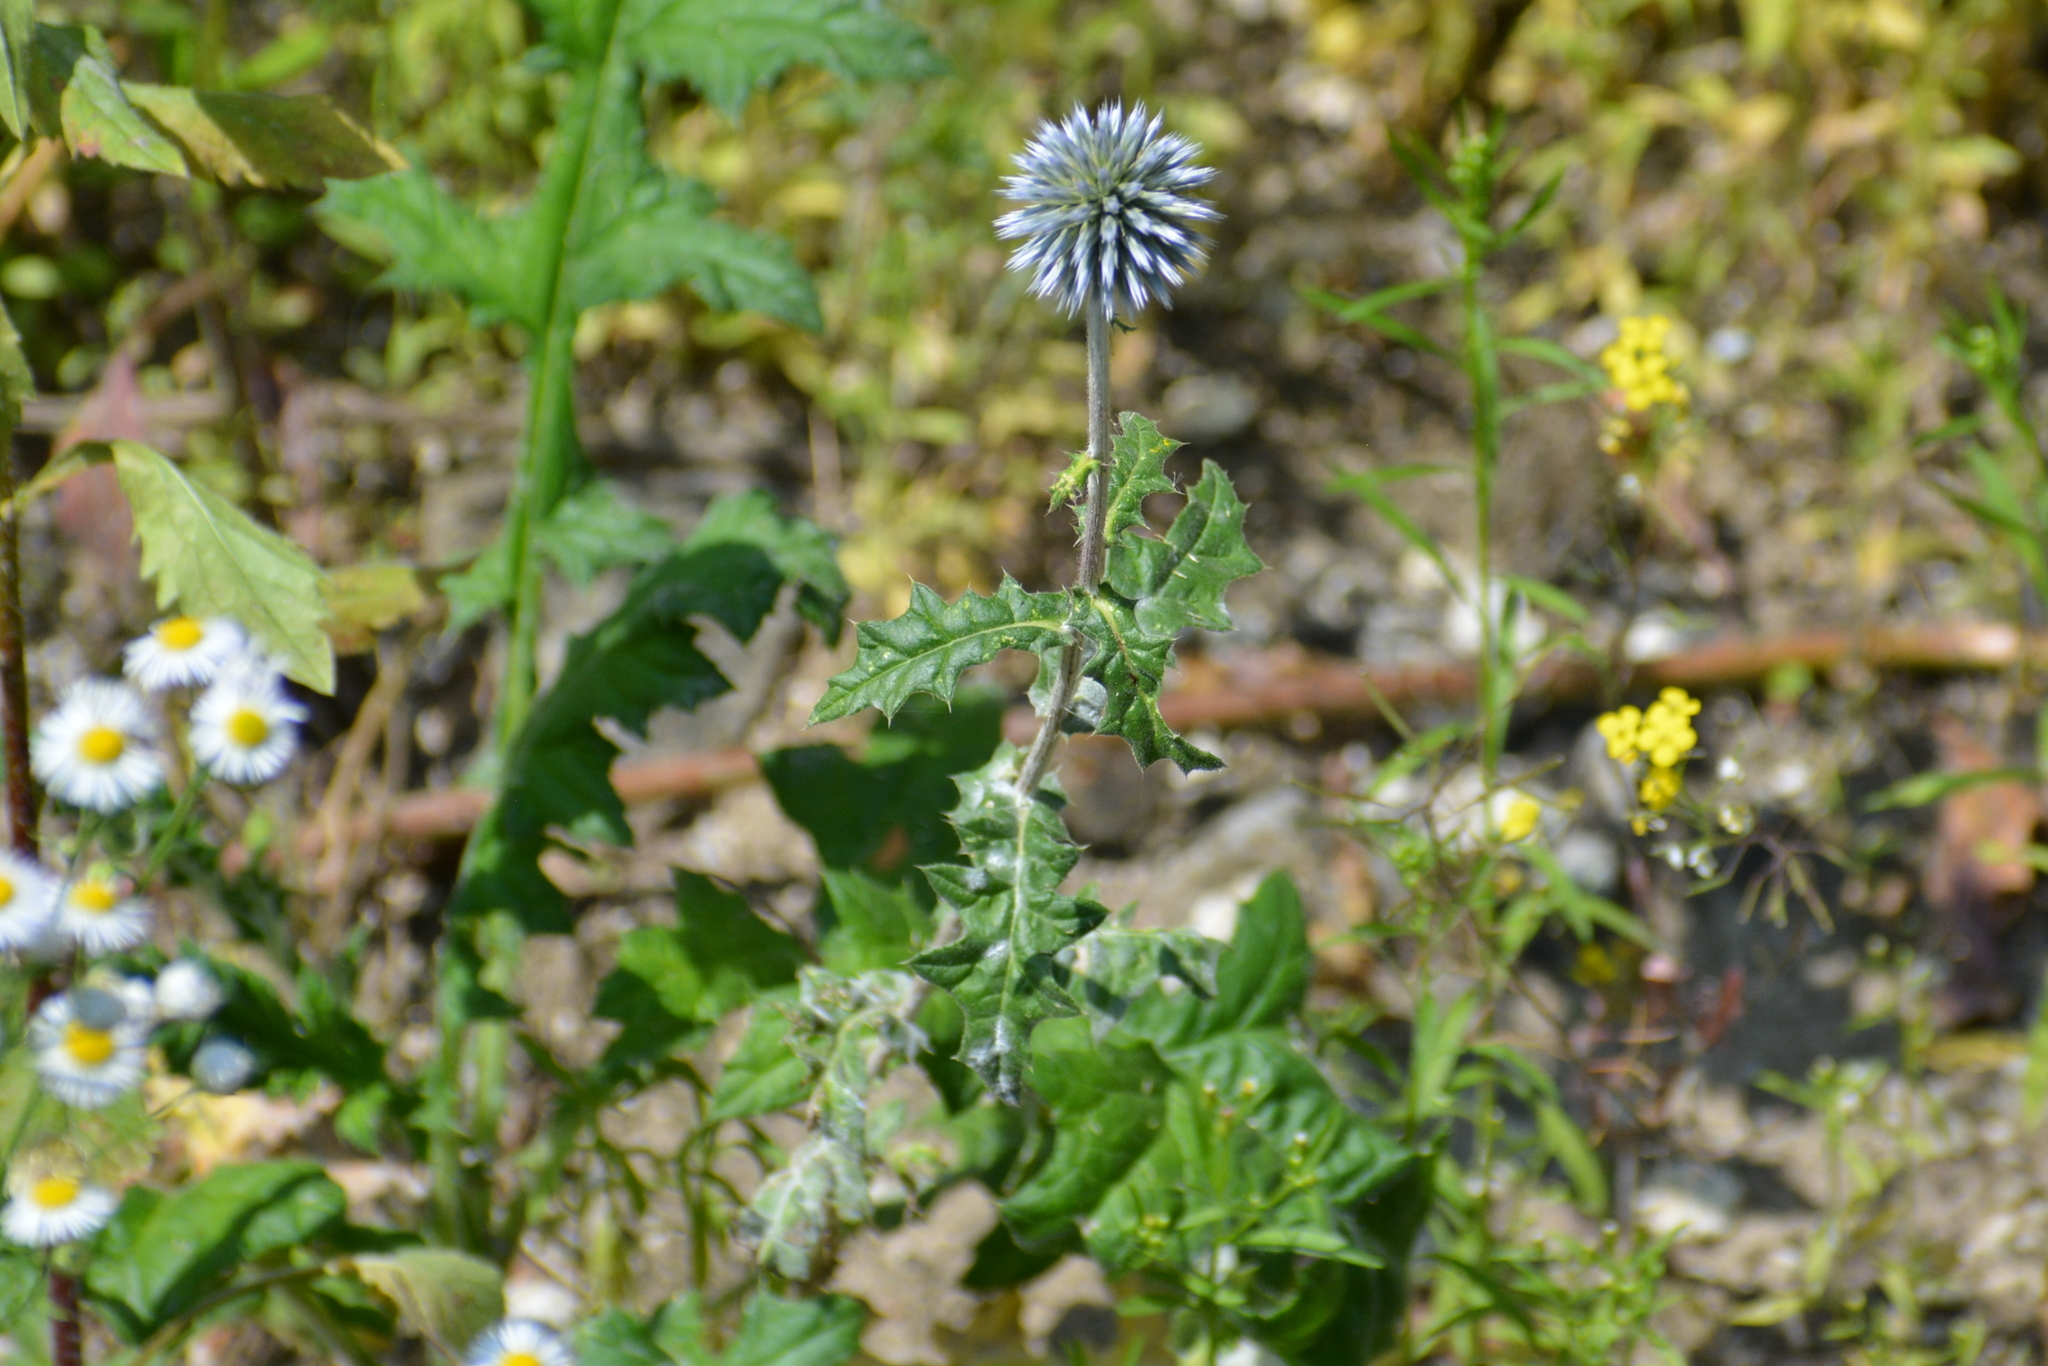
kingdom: Plantae
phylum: Tracheophyta
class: Magnoliopsida
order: Asterales
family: Asteraceae
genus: Echinops
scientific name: Echinops sphaerocephalus
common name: Glandular globe-thistle
